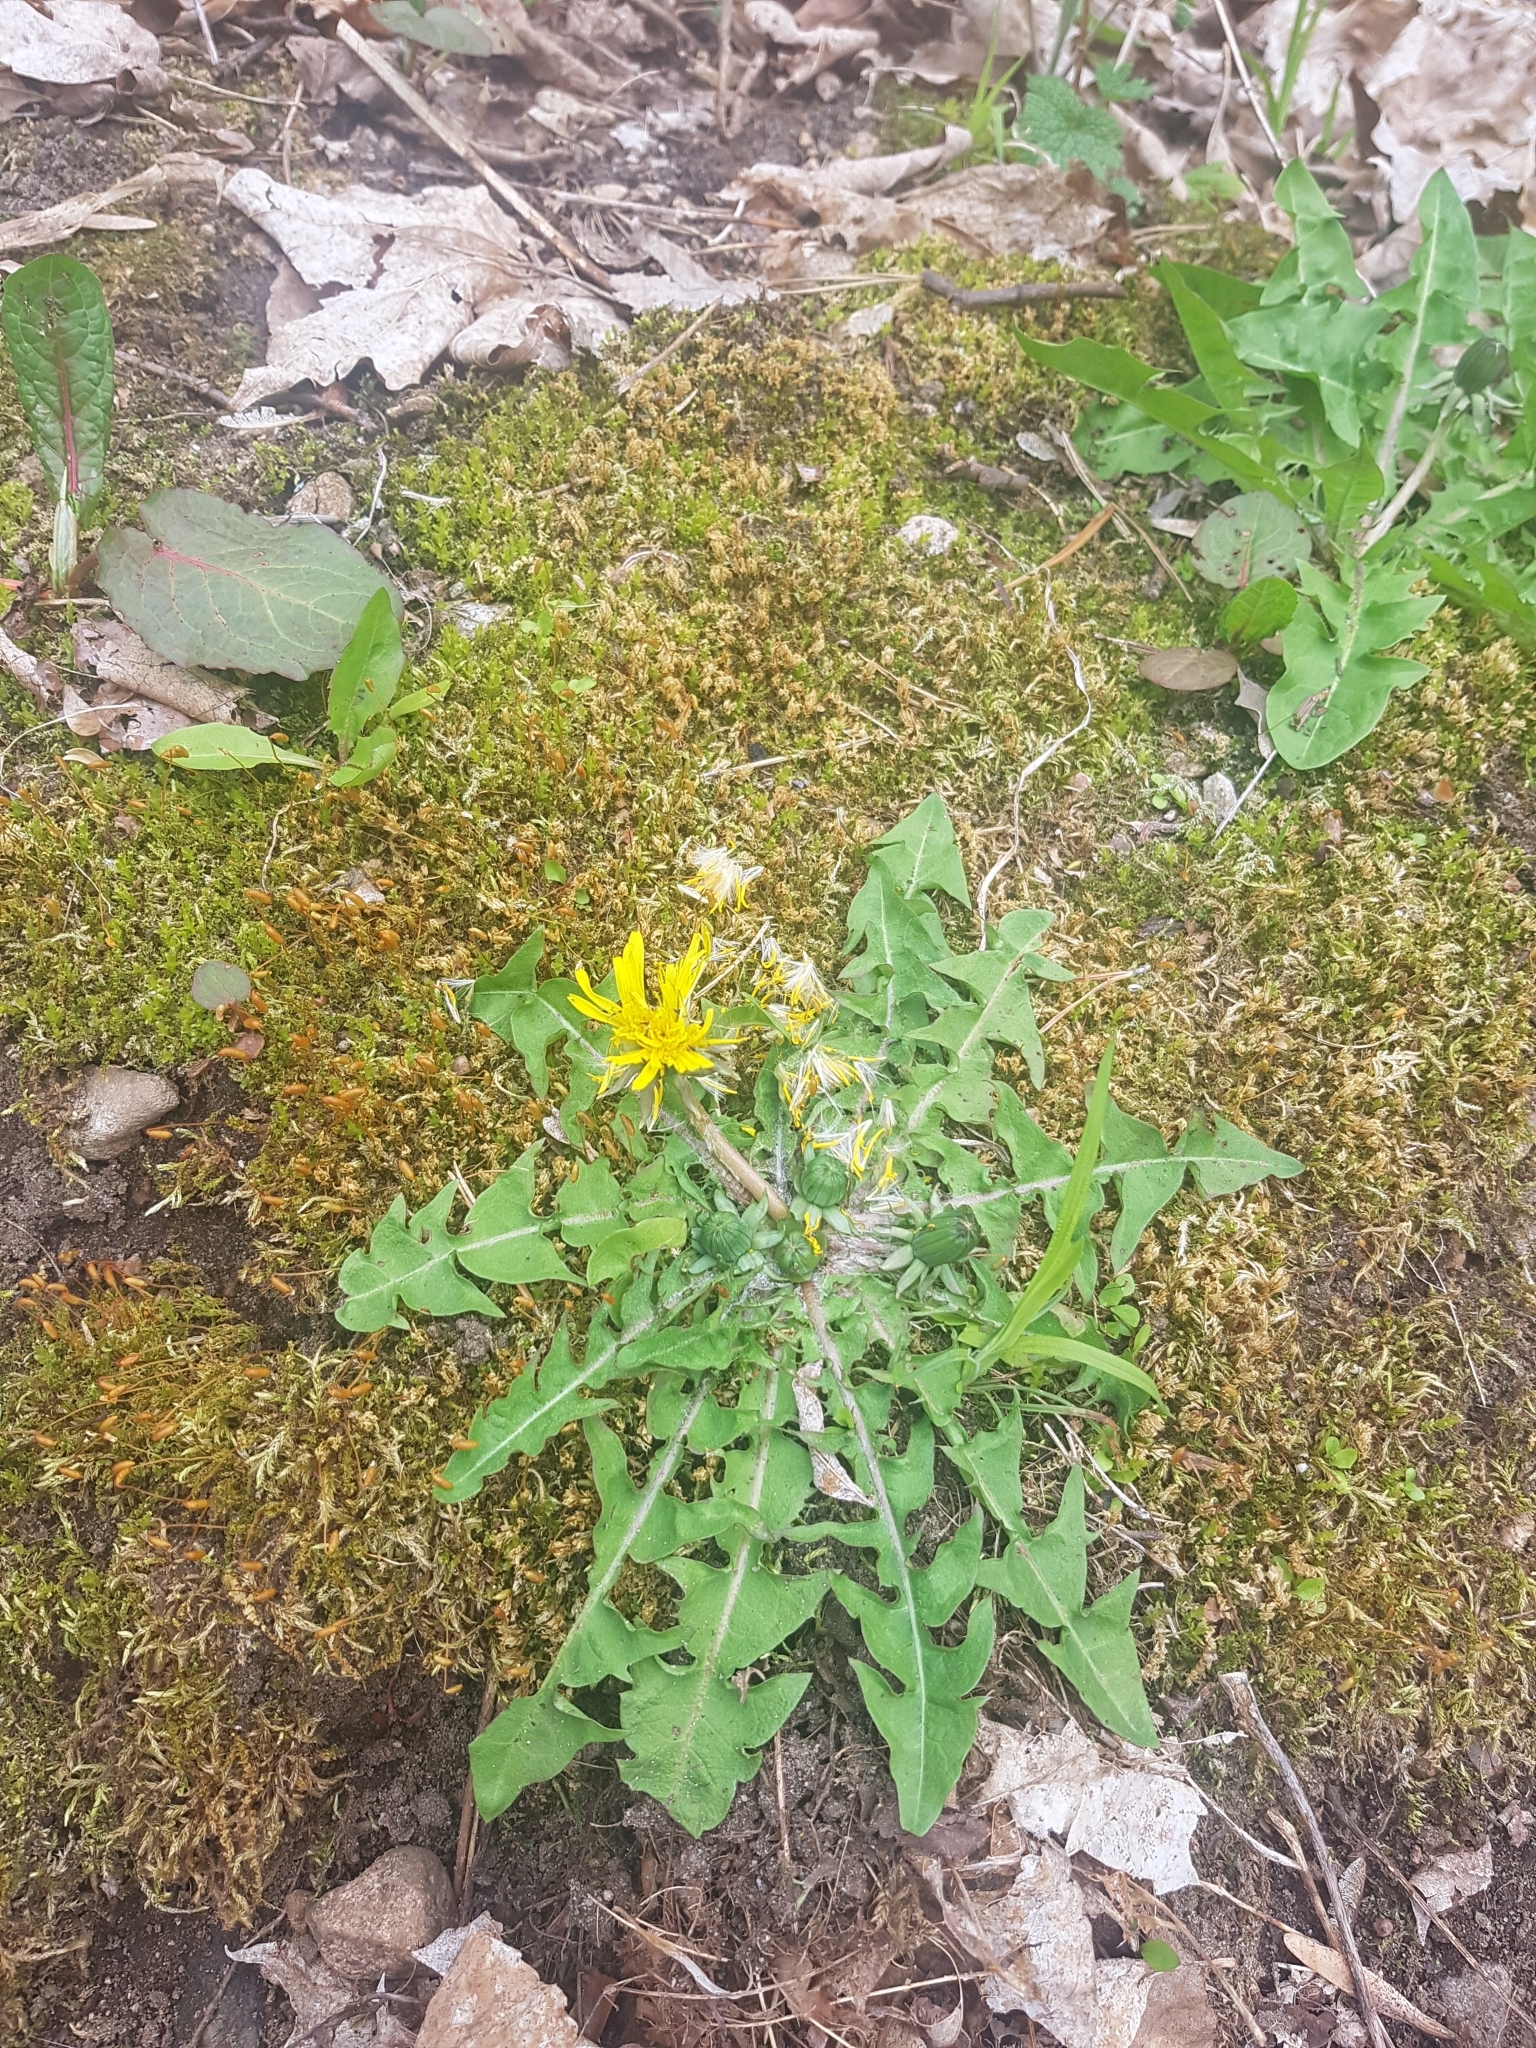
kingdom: Plantae
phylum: Tracheophyta
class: Magnoliopsida
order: Asterales
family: Asteraceae
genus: Taraxacum
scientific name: Taraxacum officinale
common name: Common dandelion
